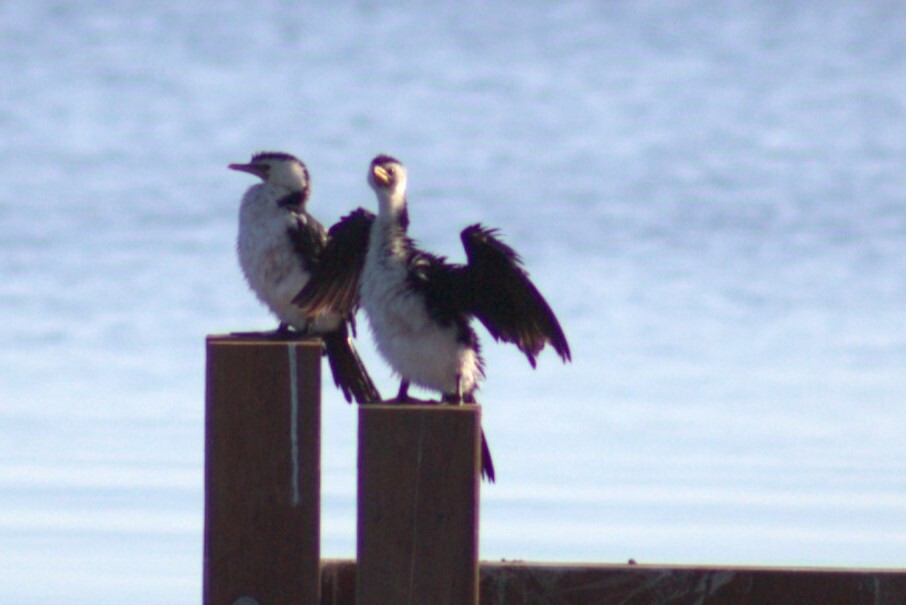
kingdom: Animalia
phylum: Chordata
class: Aves
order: Suliformes
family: Phalacrocoracidae
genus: Microcarbo
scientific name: Microcarbo melanoleucos
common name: Little pied cormorant
